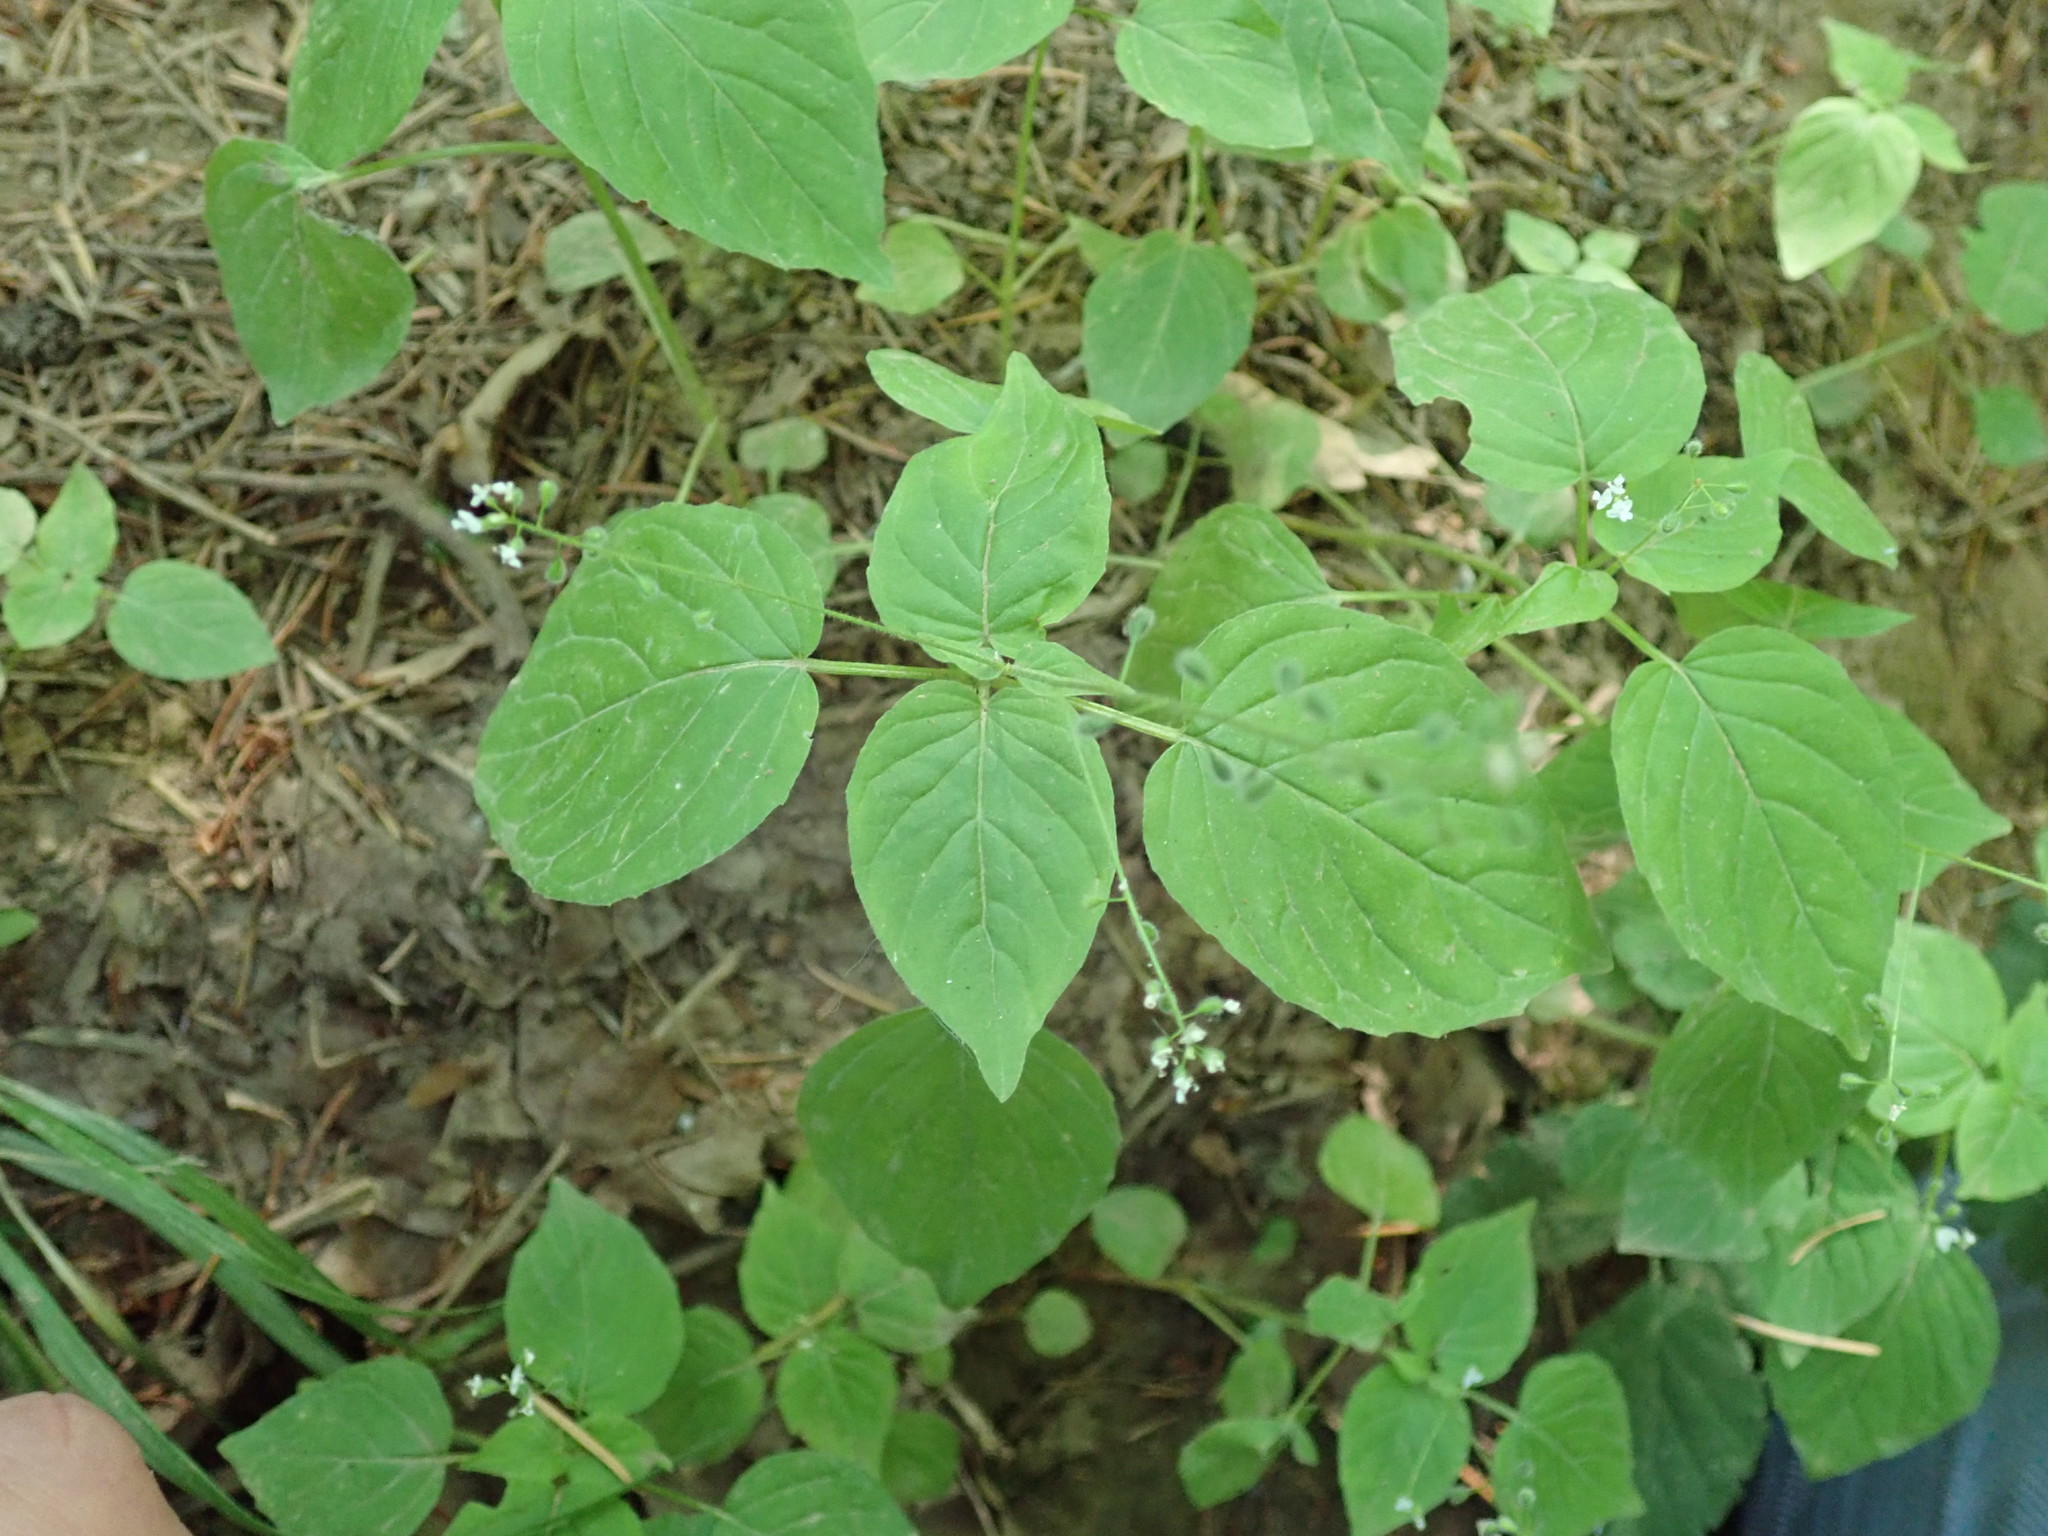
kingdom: Plantae
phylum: Tracheophyta
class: Magnoliopsida
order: Myrtales
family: Onagraceae
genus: Circaea
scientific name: Circaea alpina
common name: Alpine enchanter's-nightshade
